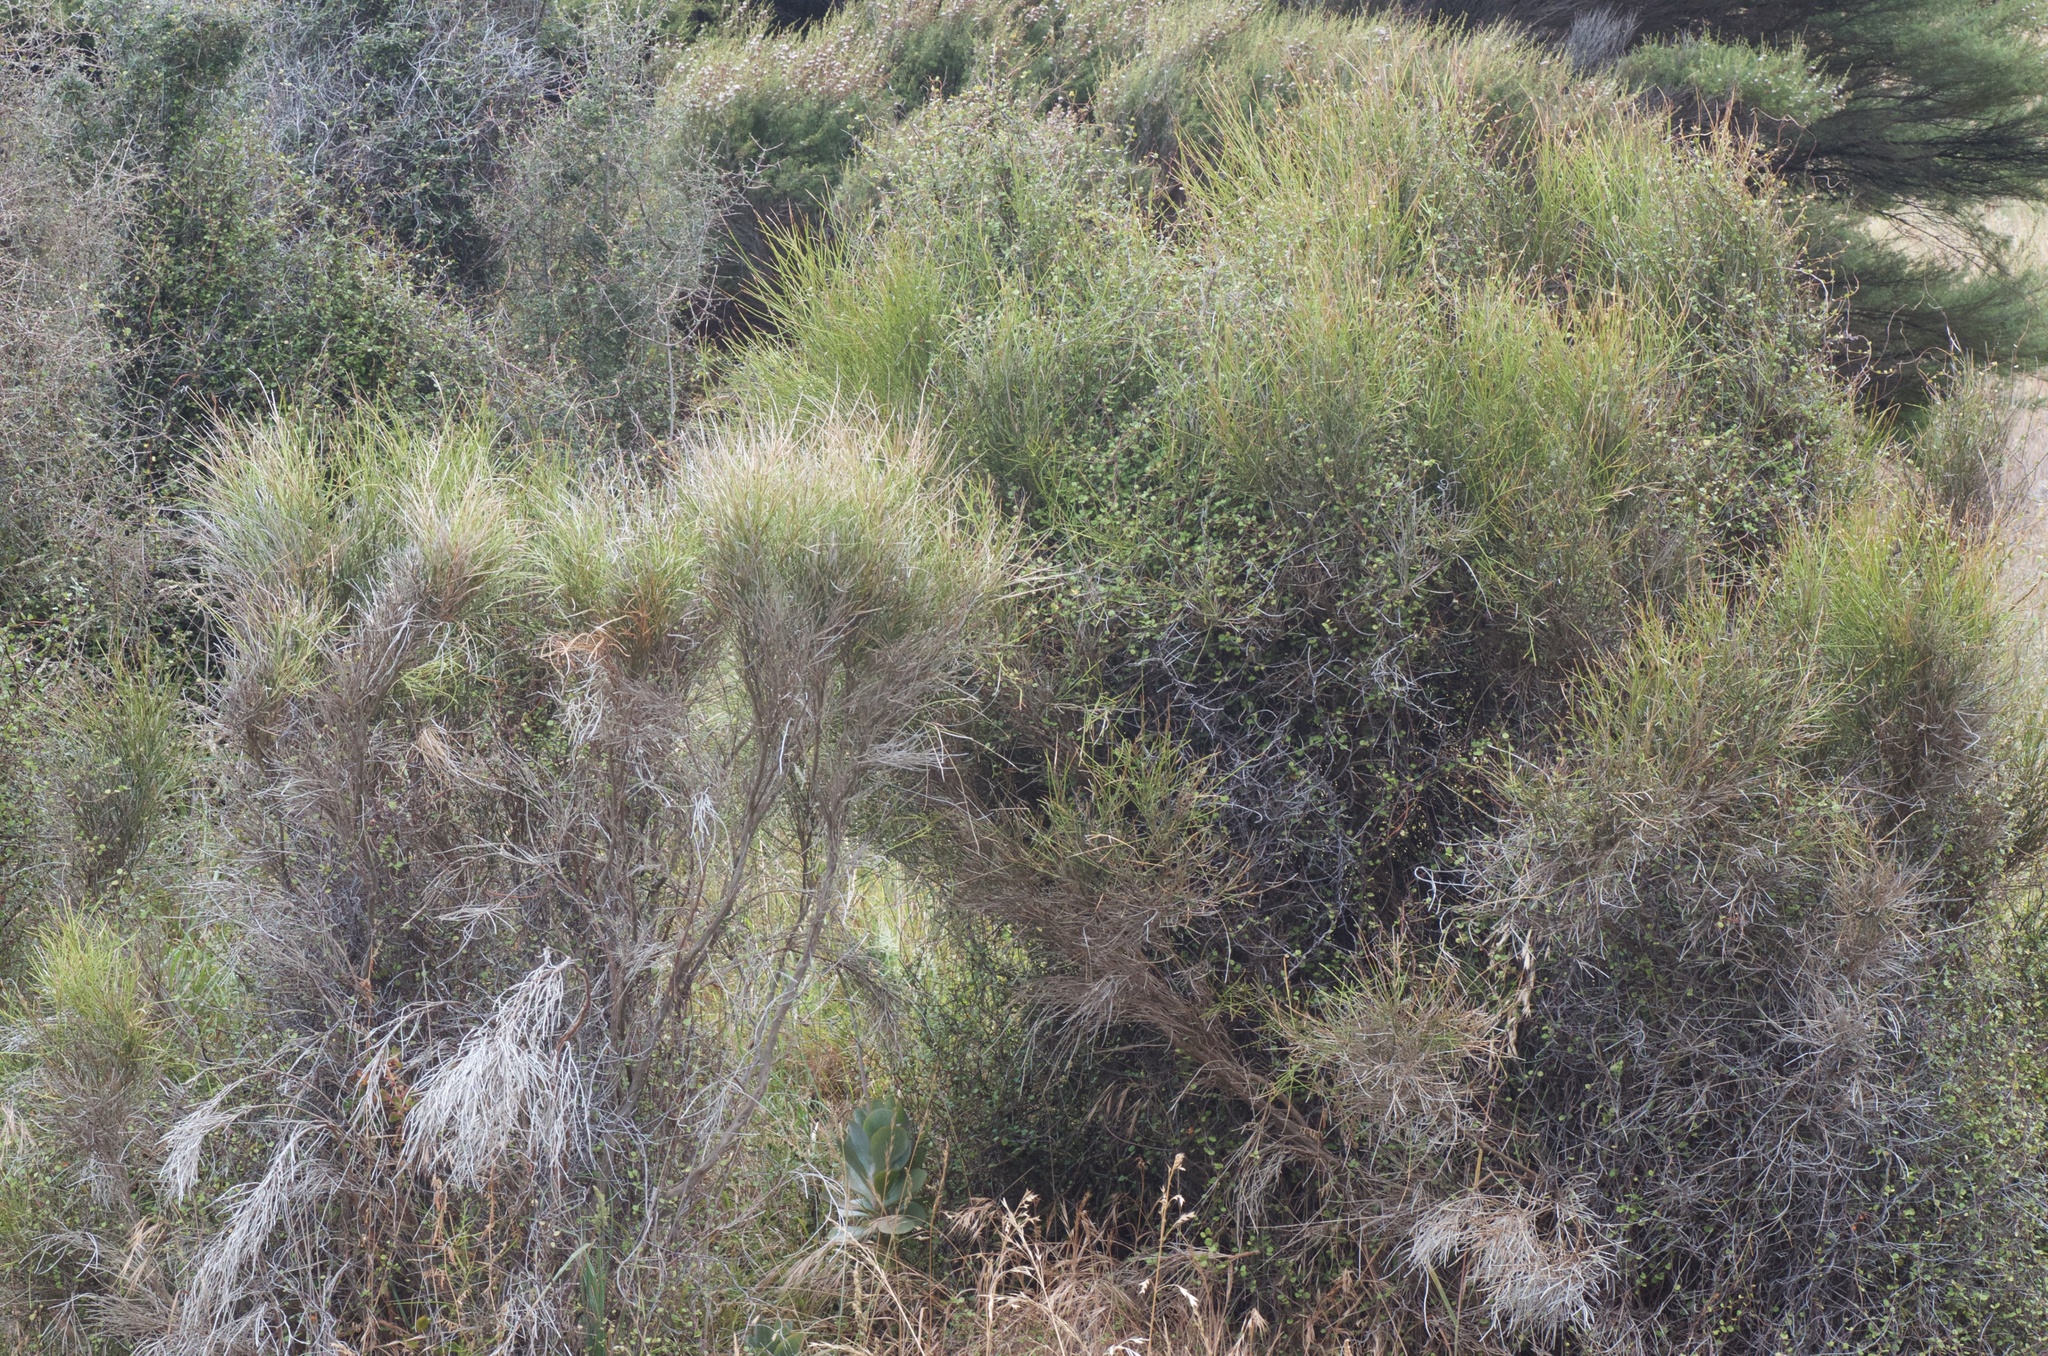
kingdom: Plantae
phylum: Tracheophyta
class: Magnoliopsida
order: Fabales
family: Fabaceae
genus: Carmichaelia
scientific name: Carmichaelia australis
